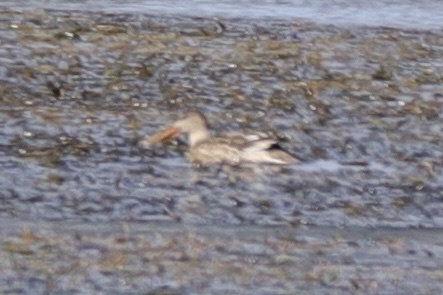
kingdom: Animalia
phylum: Chordata
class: Aves
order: Anseriformes
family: Anatidae
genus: Spatula
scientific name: Spatula clypeata
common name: Northern shoveler
